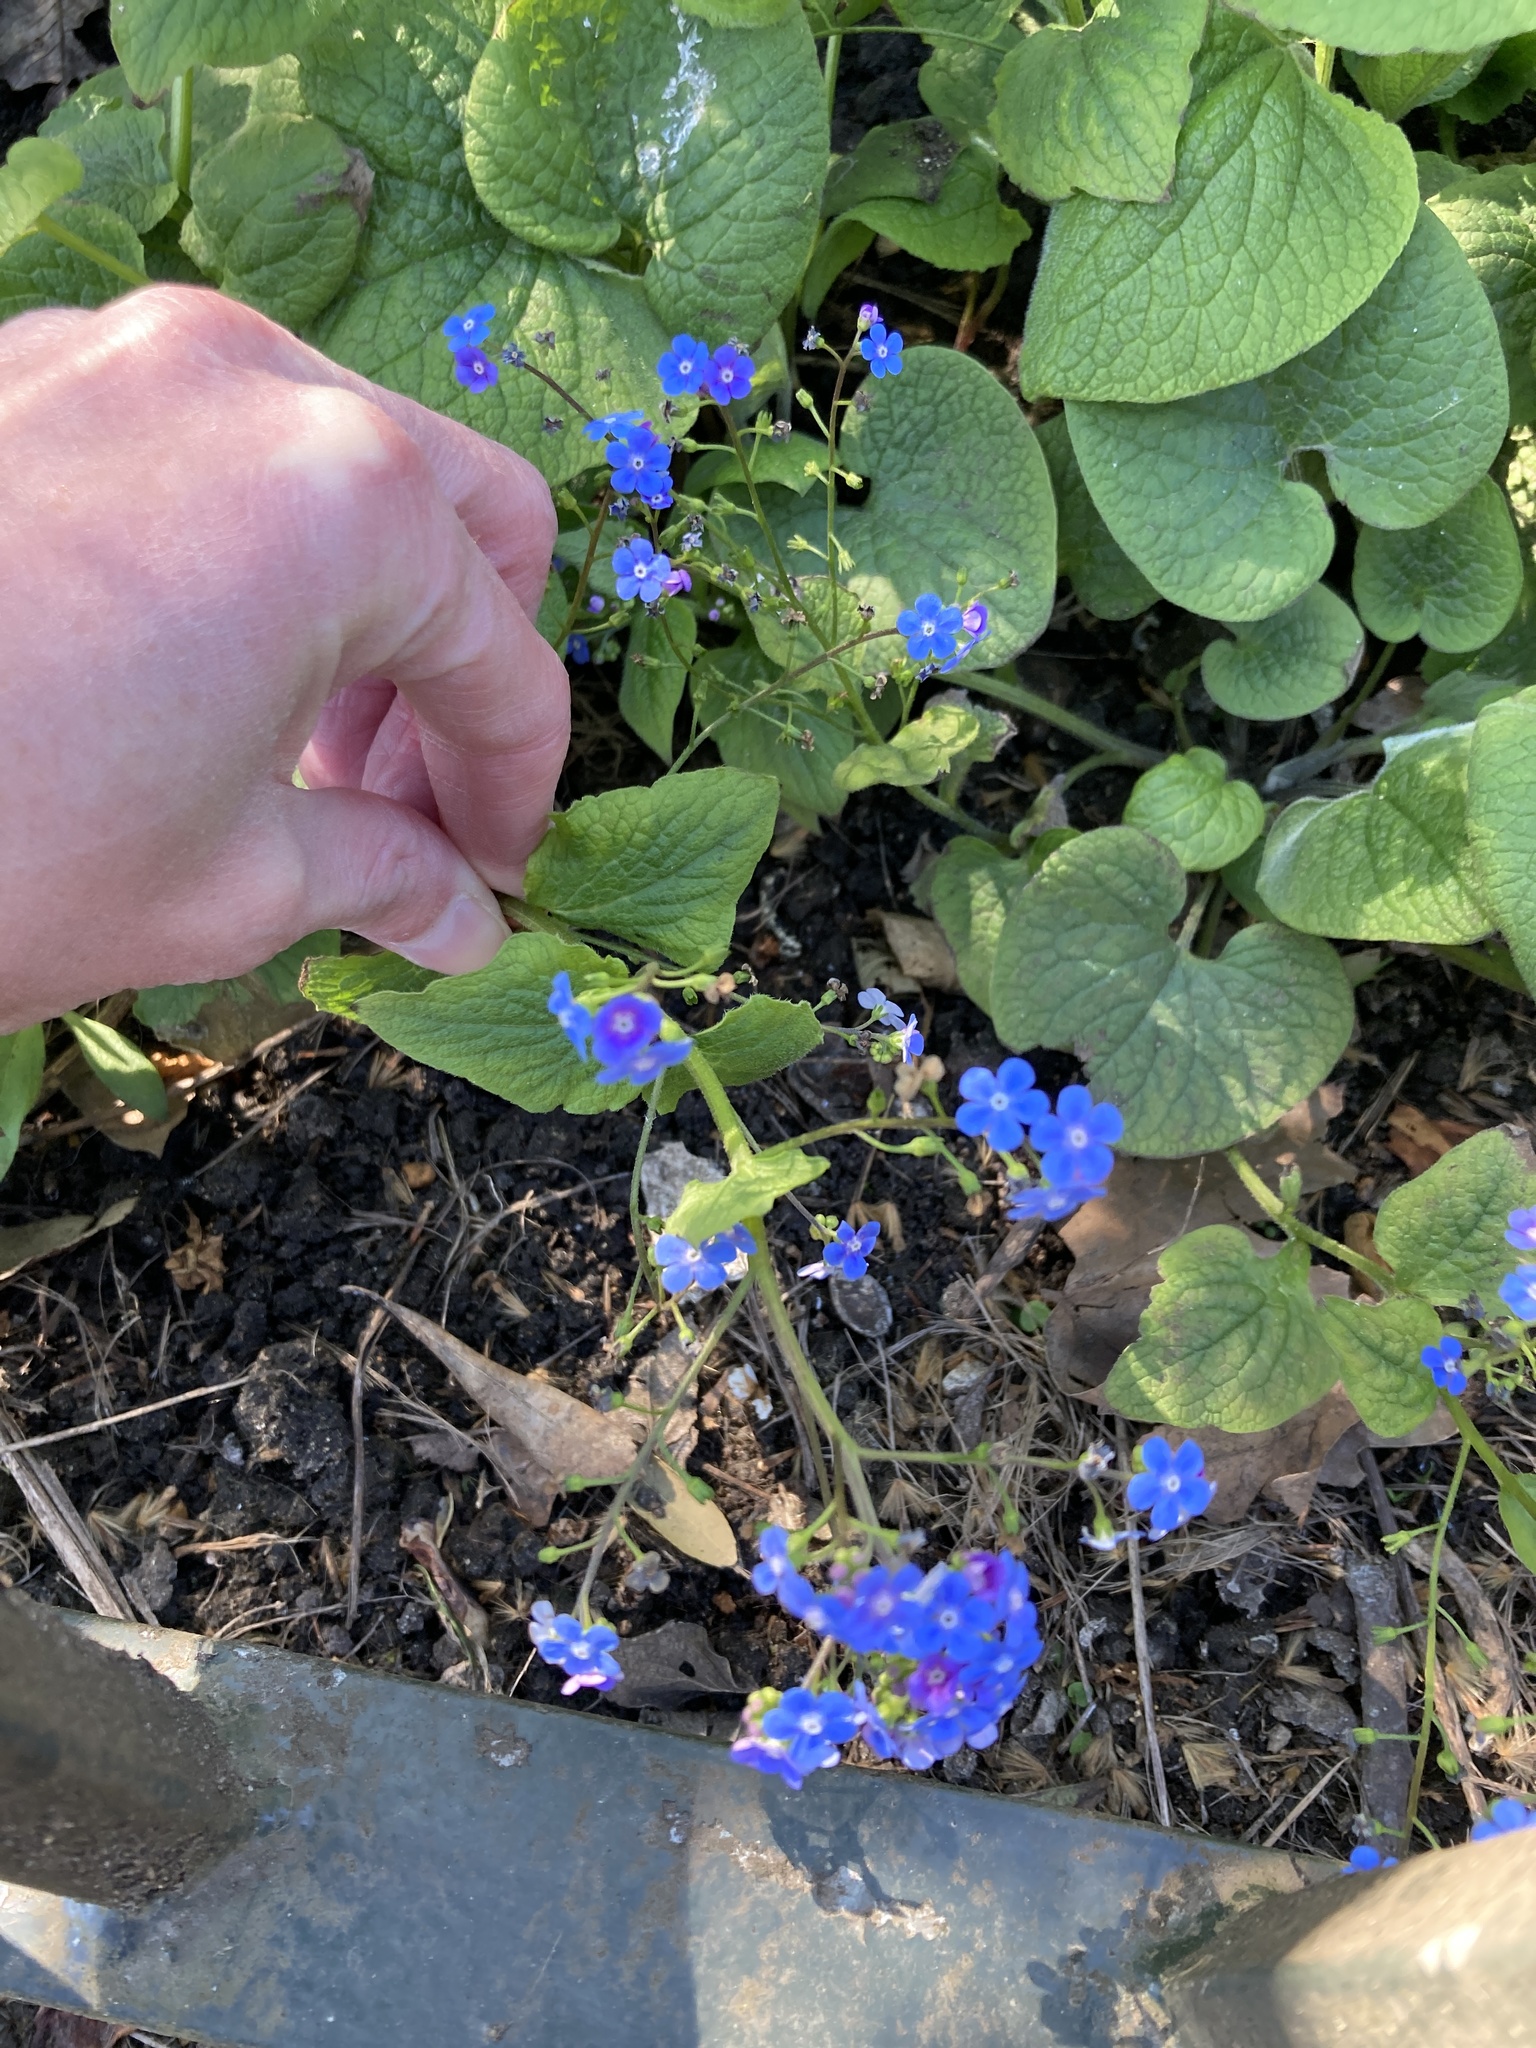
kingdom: Plantae
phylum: Tracheophyta
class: Magnoliopsida
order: Boraginales
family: Boraginaceae
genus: Brunnera
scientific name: Brunnera macrophylla
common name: Great forget-me-not
